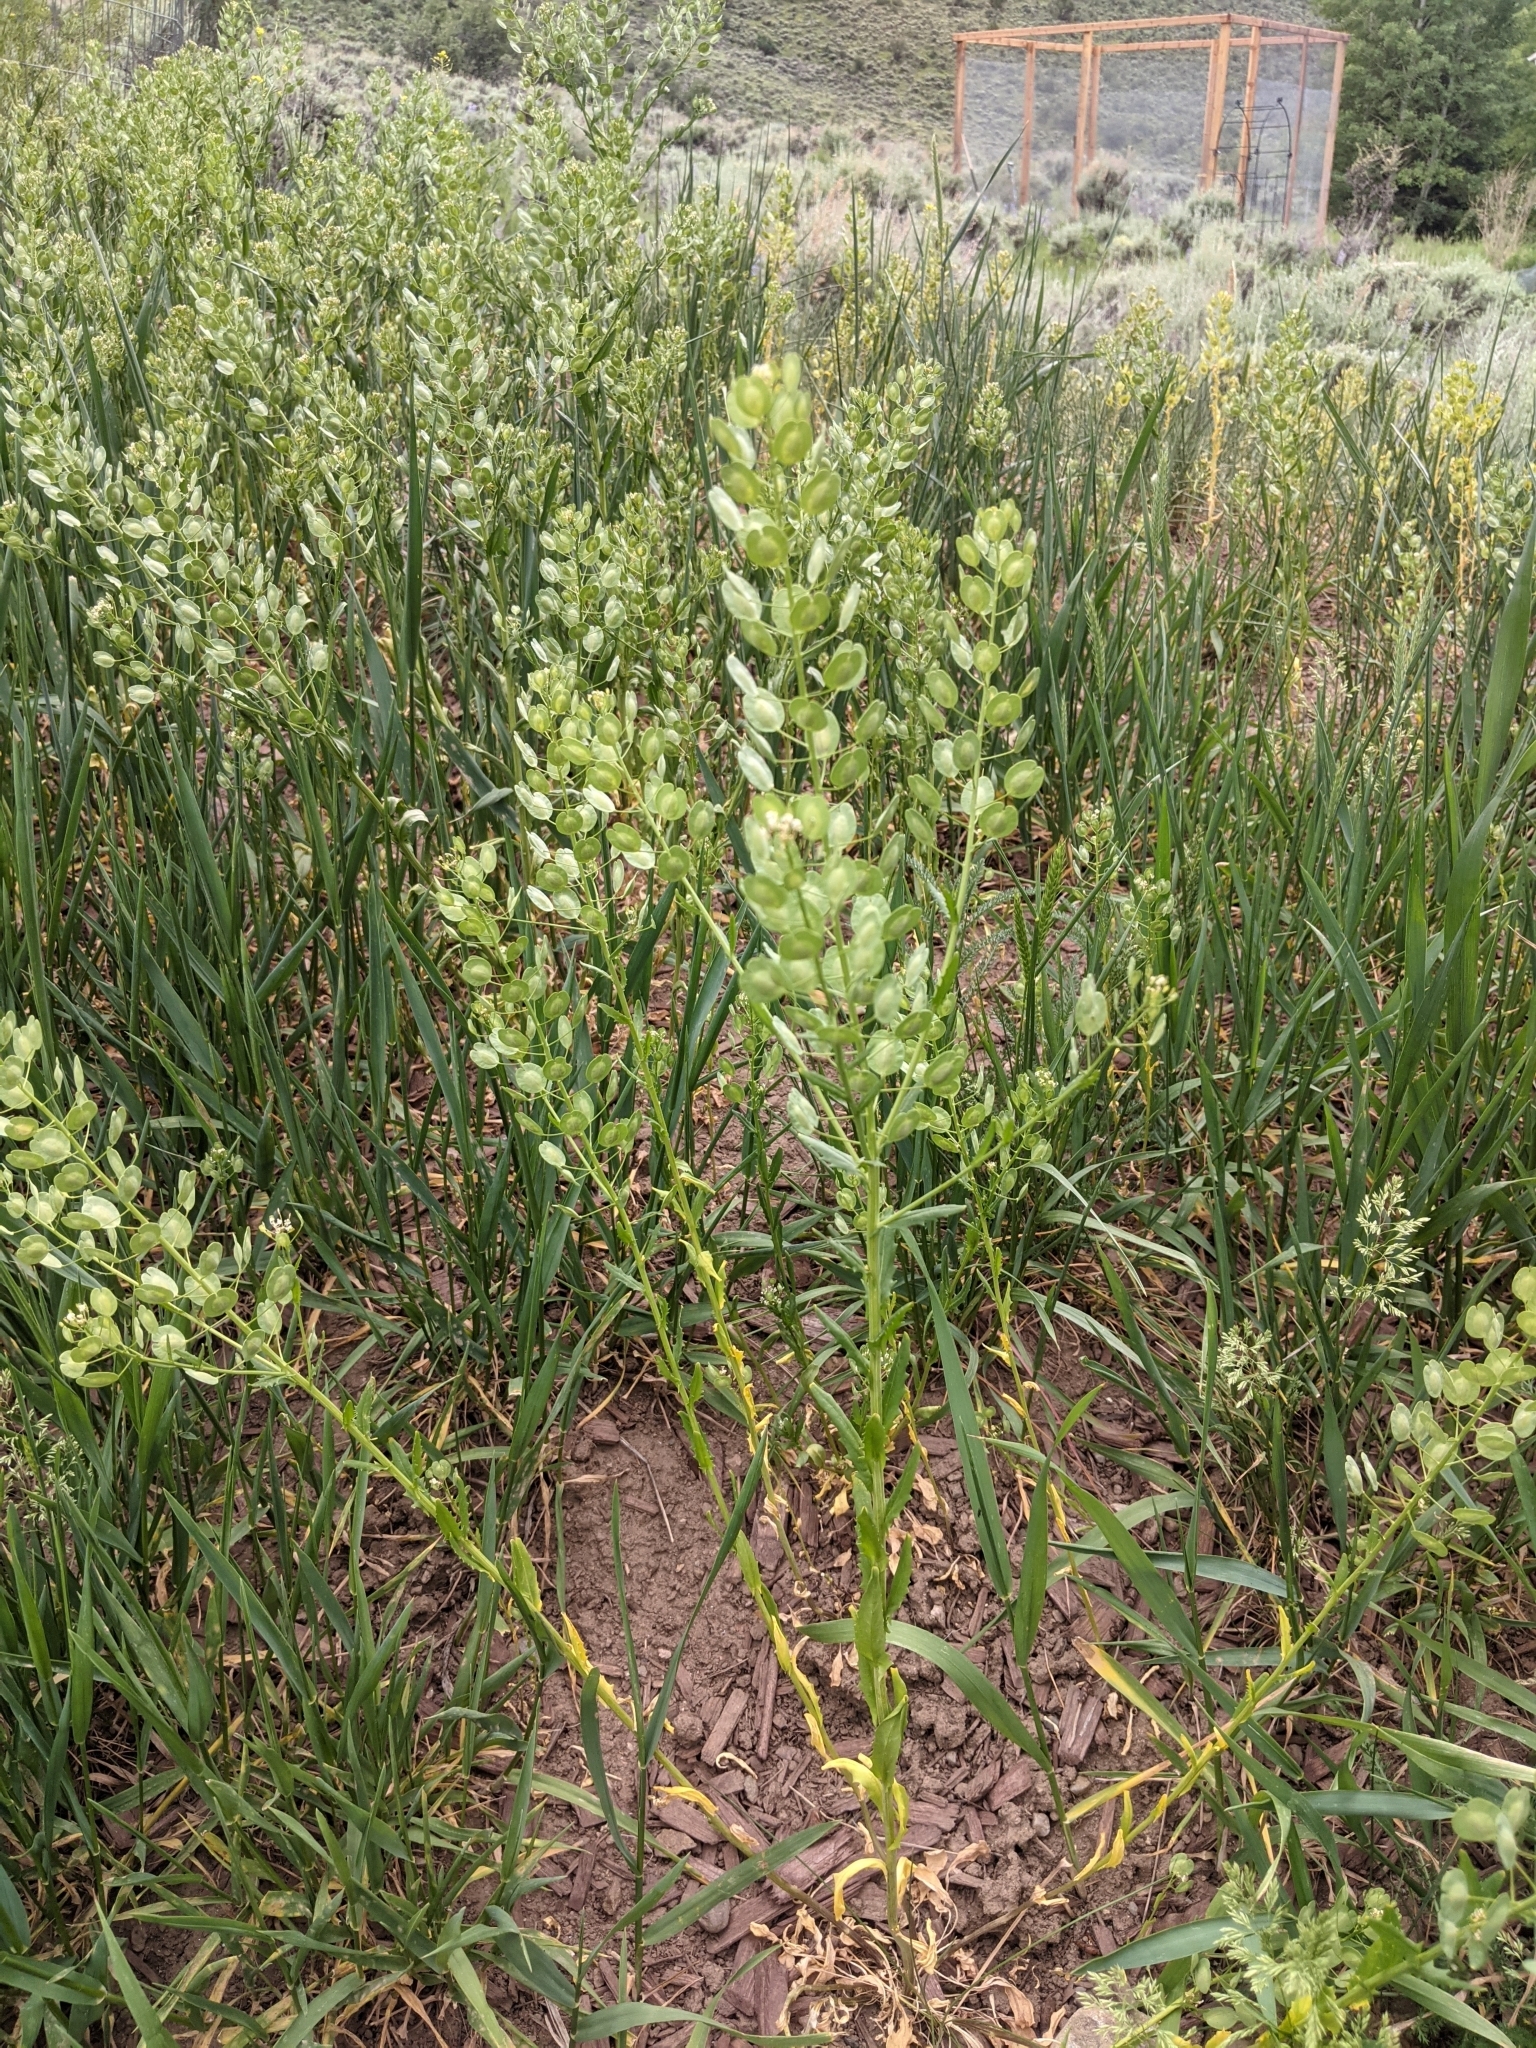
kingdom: Plantae
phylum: Tracheophyta
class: Magnoliopsida
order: Brassicales
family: Brassicaceae
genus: Thlaspi
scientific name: Thlaspi arvense
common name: Field pennycress
